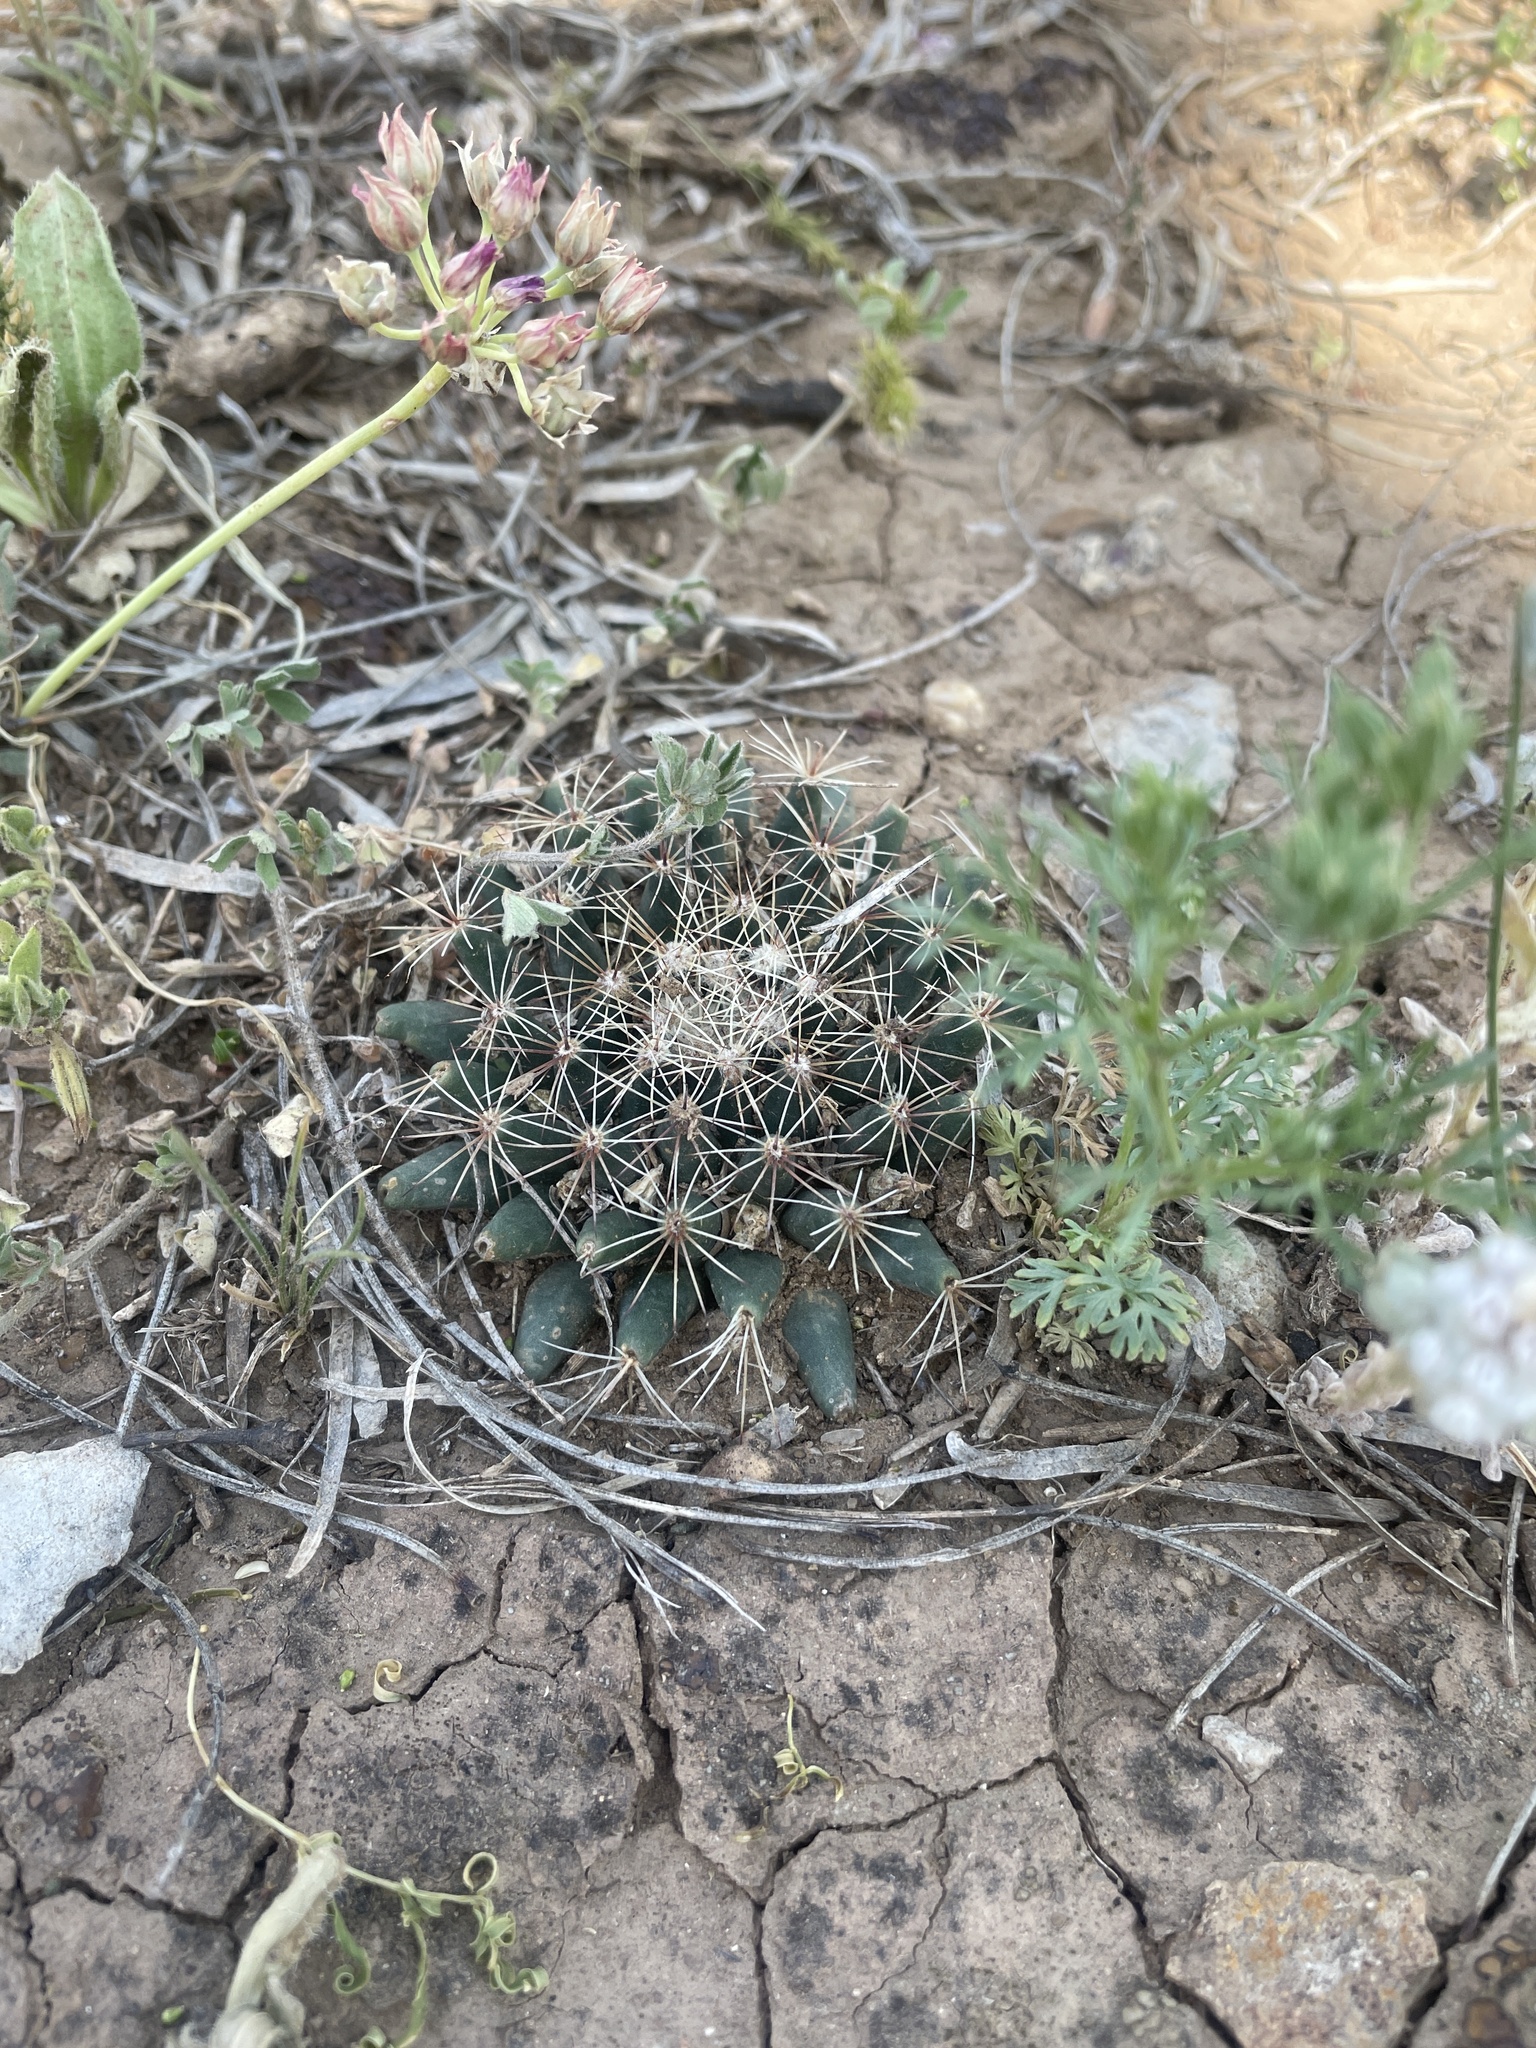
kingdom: Plantae
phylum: Tracheophyta
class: Magnoliopsida
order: Caryophyllales
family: Cactaceae
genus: Mammillaria
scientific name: Mammillaria heyderi
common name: Little nipple cactus
